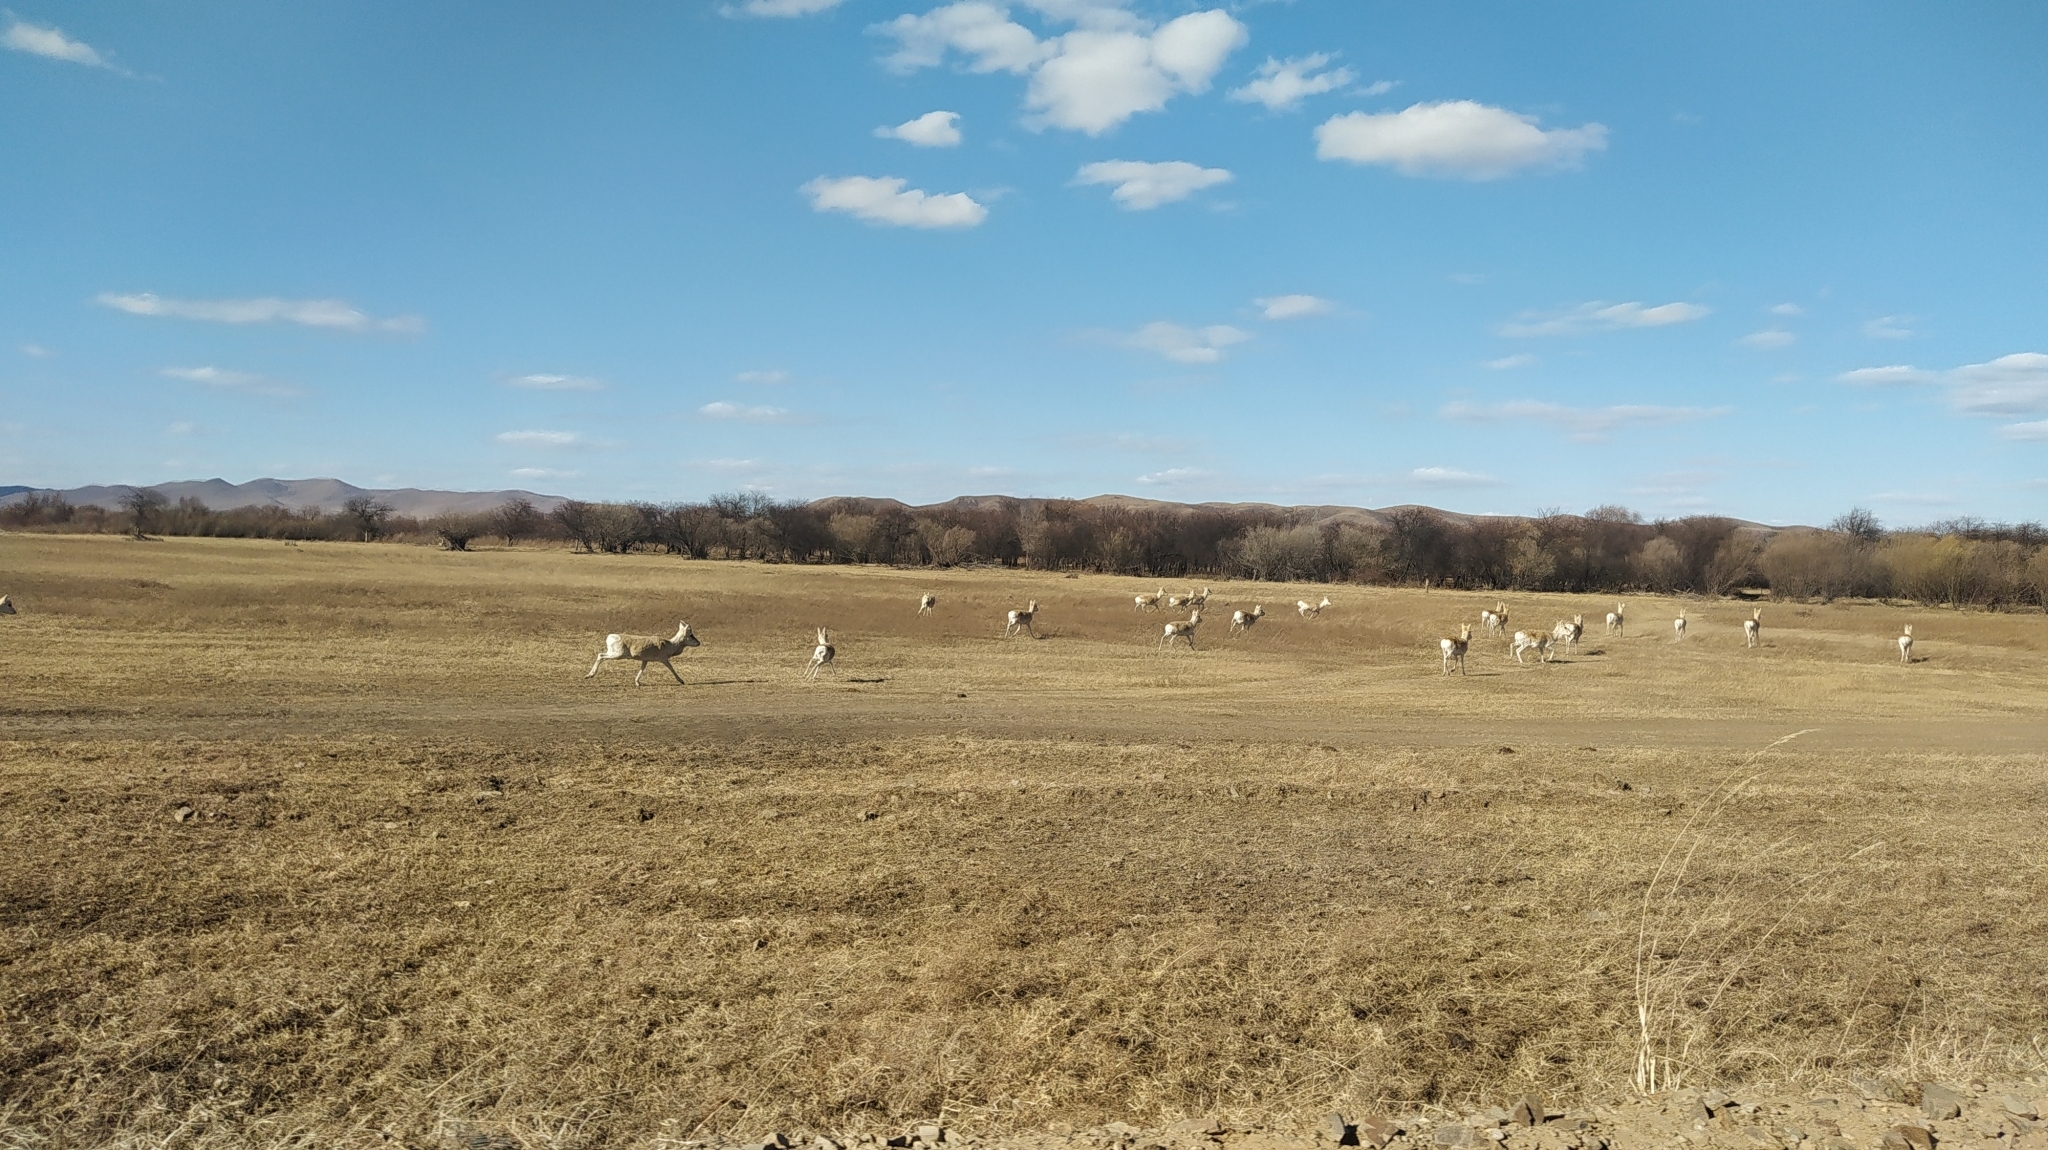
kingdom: Animalia
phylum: Chordata
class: Mammalia
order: Artiodactyla
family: Bovidae
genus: Procapra
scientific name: Procapra gutturosa
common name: Mongolian gazelle
